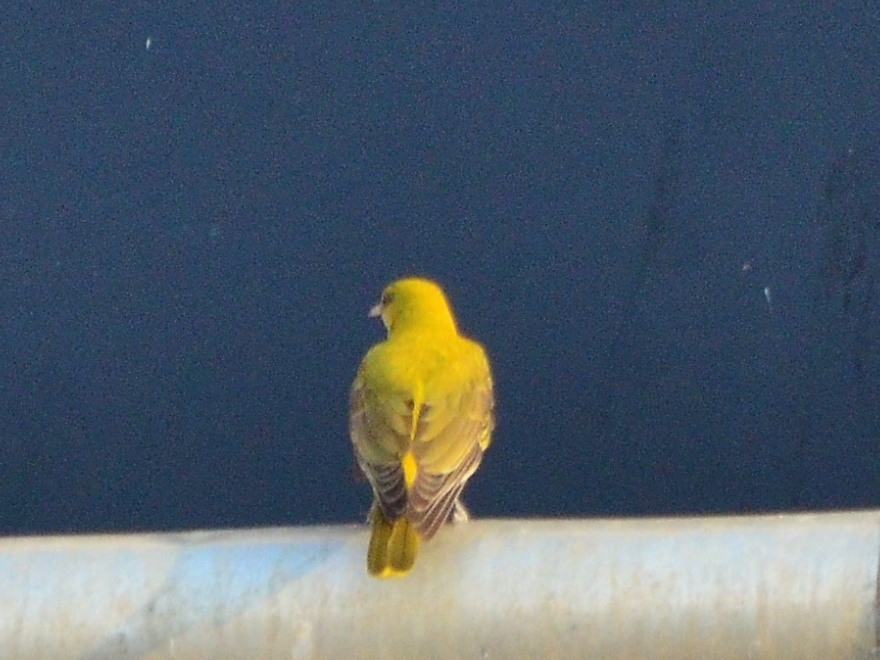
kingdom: Animalia
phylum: Chordata
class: Aves
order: Passeriformes
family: Oriolidae
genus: Oriolus
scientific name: Oriolus kundoo
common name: Indian golden oriole
